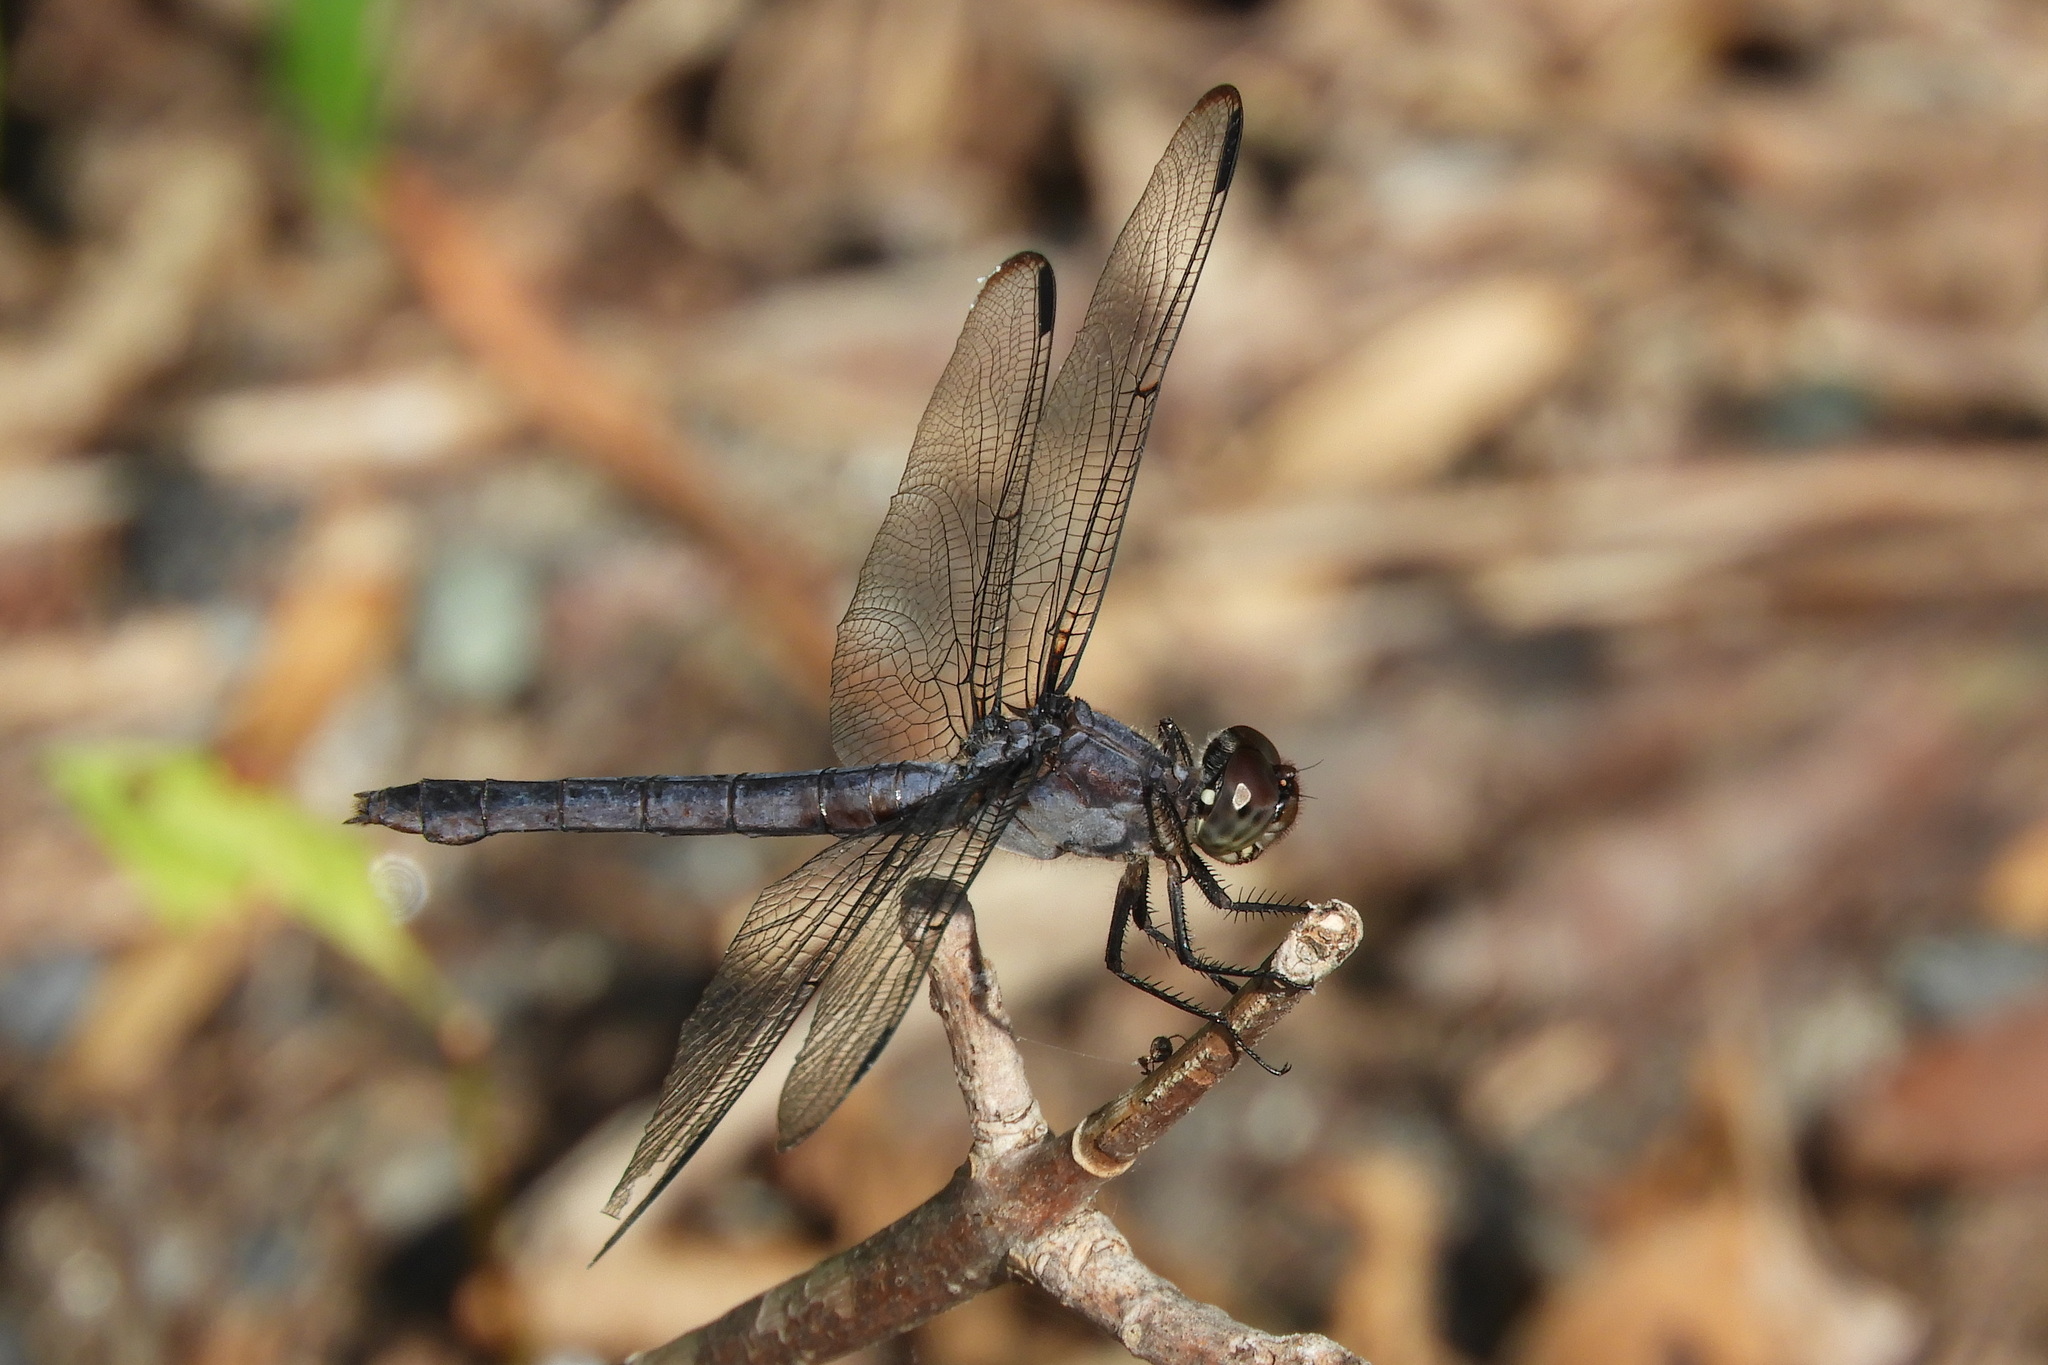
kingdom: Animalia
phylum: Arthropoda
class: Insecta
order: Odonata
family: Libellulidae
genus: Libellula
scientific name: Libellula incesta
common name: Slaty skimmer
